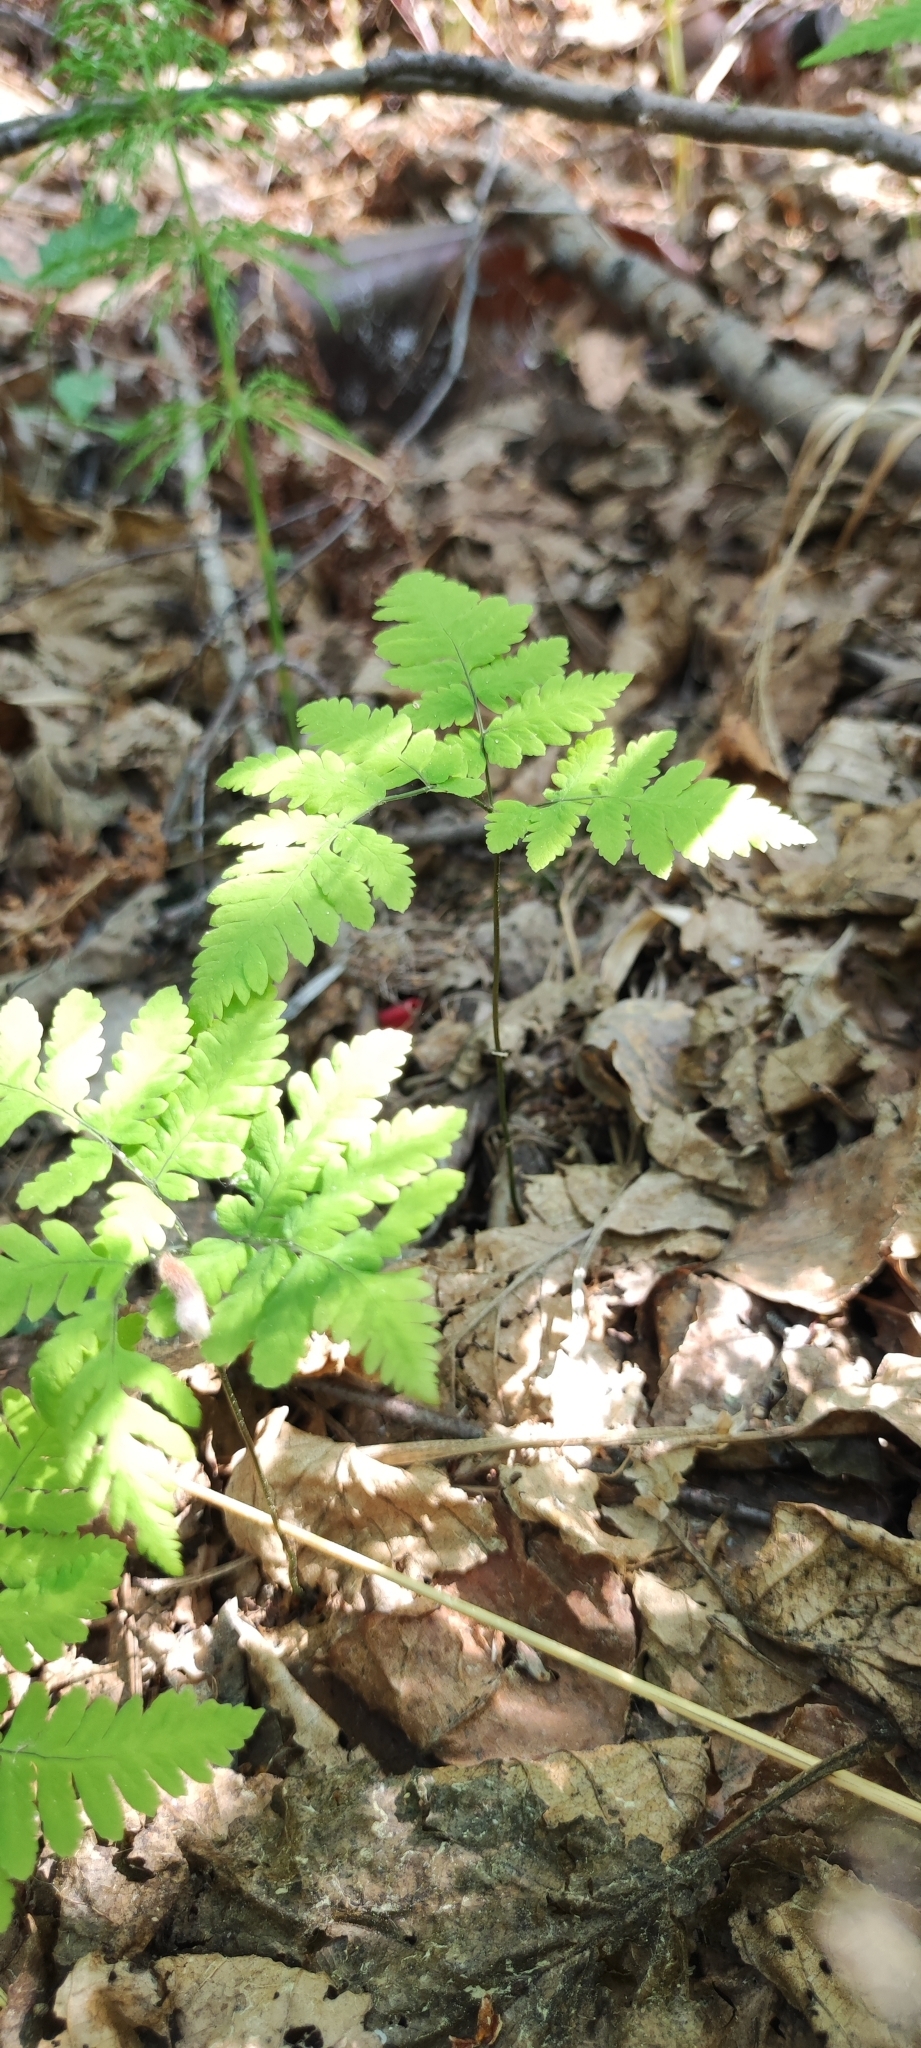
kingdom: Plantae
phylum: Tracheophyta
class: Polypodiopsida
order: Polypodiales
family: Cystopteridaceae
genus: Gymnocarpium
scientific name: Gymnocarpium dryopteris
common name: Oak fern
